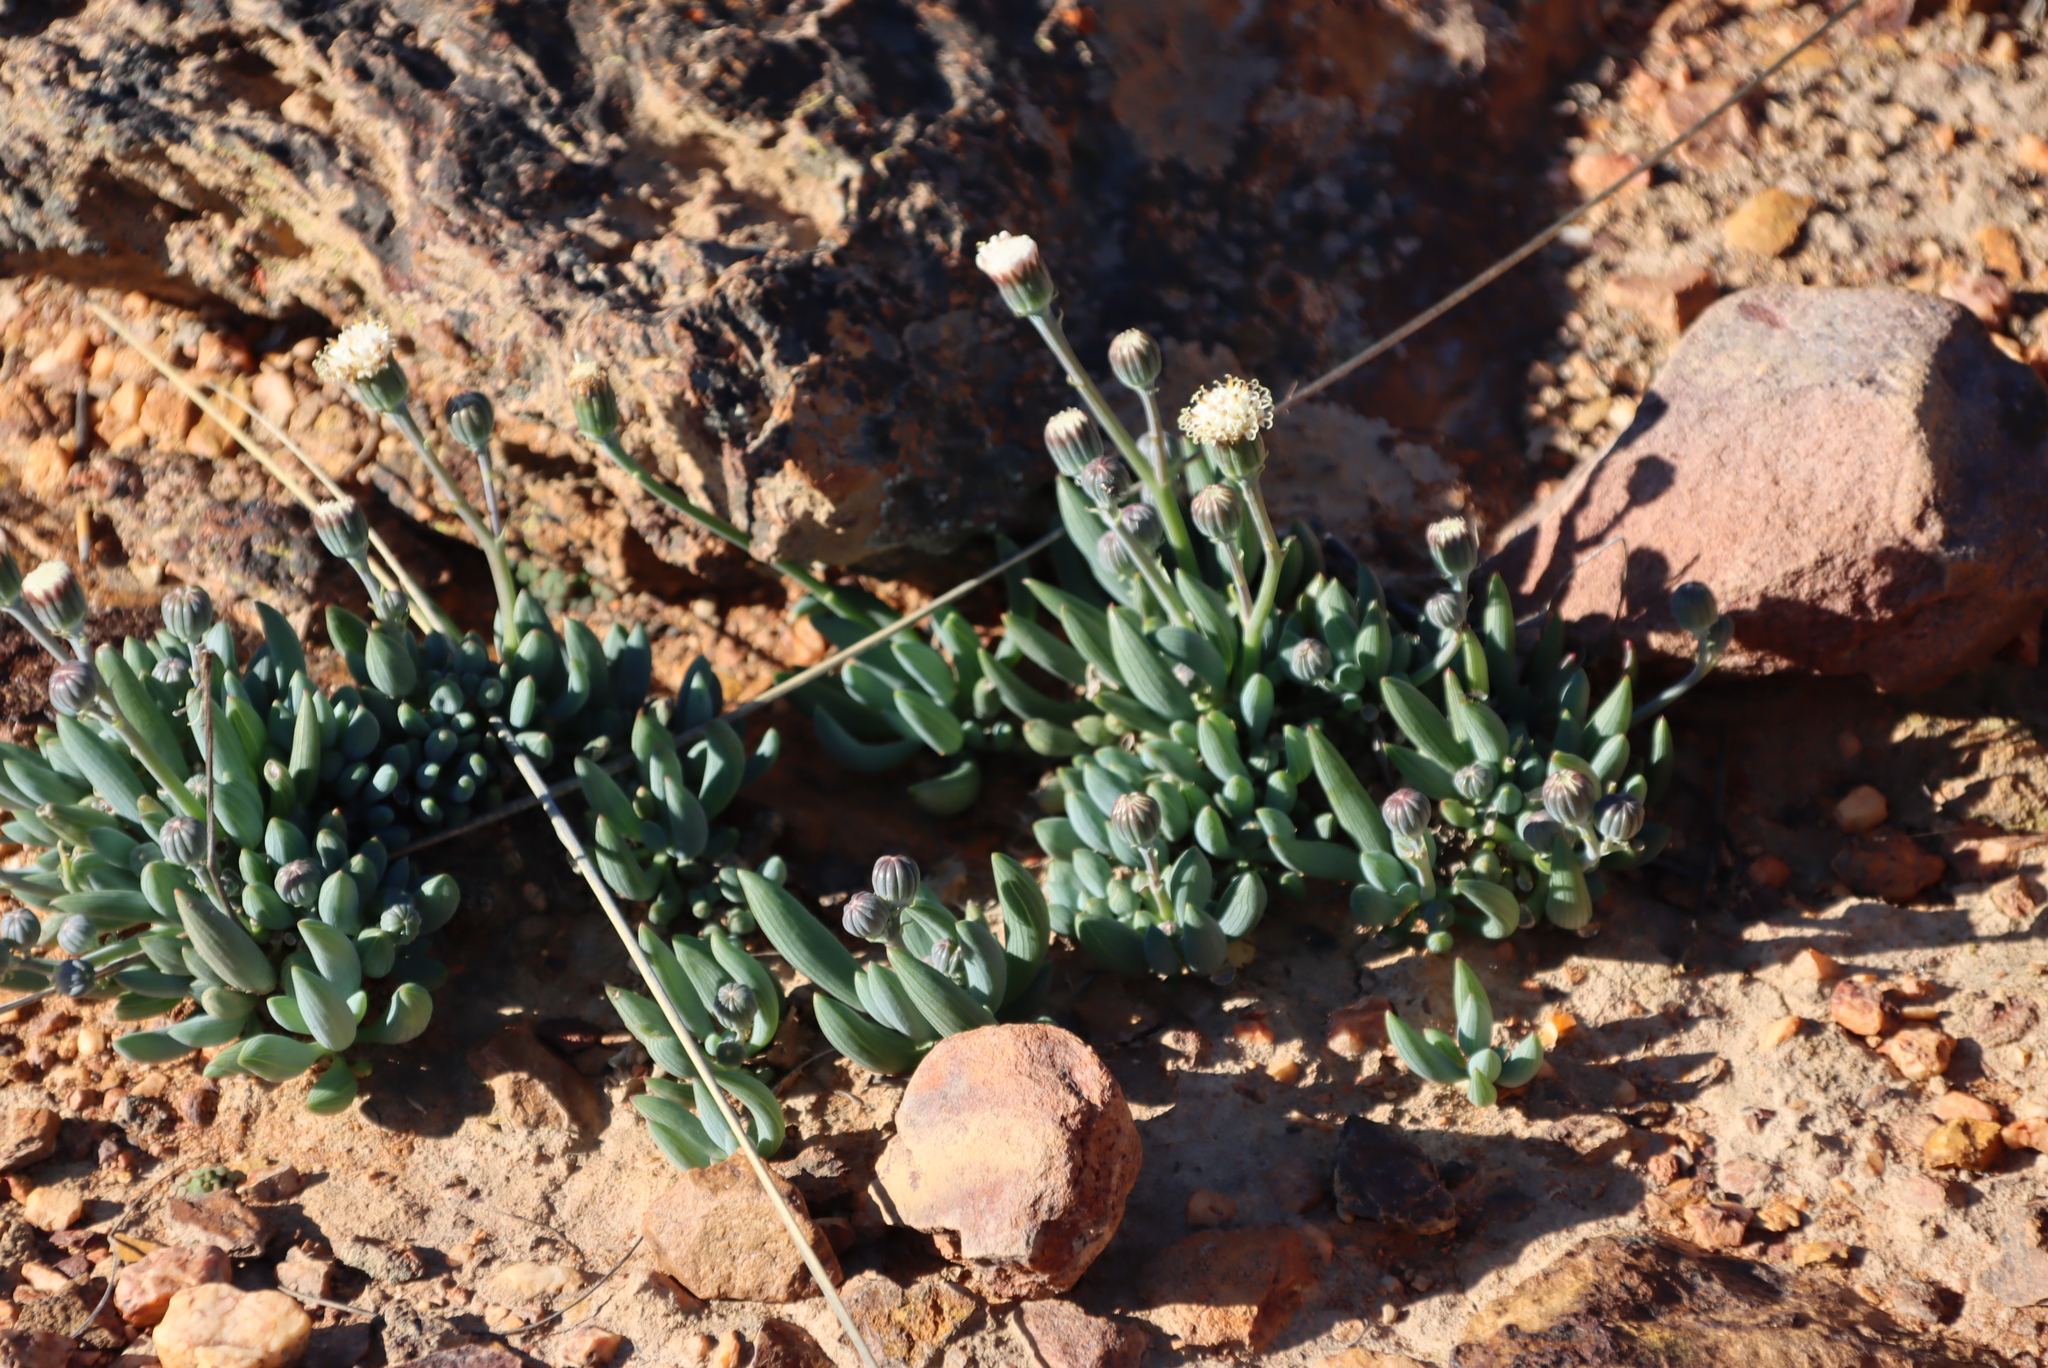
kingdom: Plantae
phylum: Tracheophyta
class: Magnoliopsida
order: Asterales
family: Asteraceae
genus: Curio
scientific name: Curio talinoides
